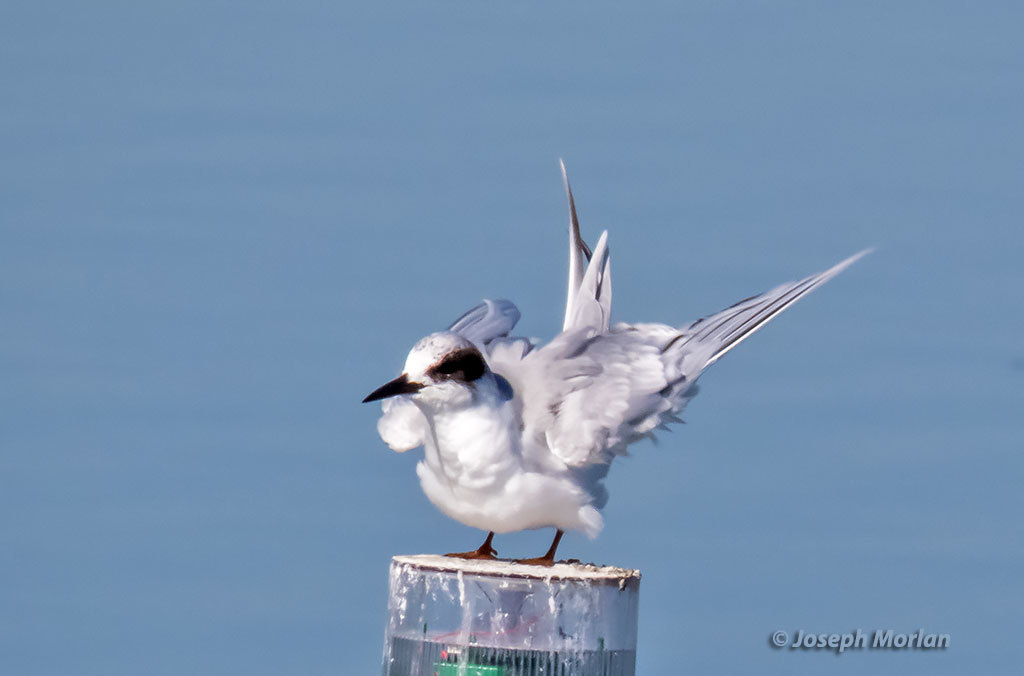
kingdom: Animalia
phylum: Chordata
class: Aves
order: Charadriiformes
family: Laridae
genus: Sterna
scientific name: Sterna forsteri
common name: Forster's tern
